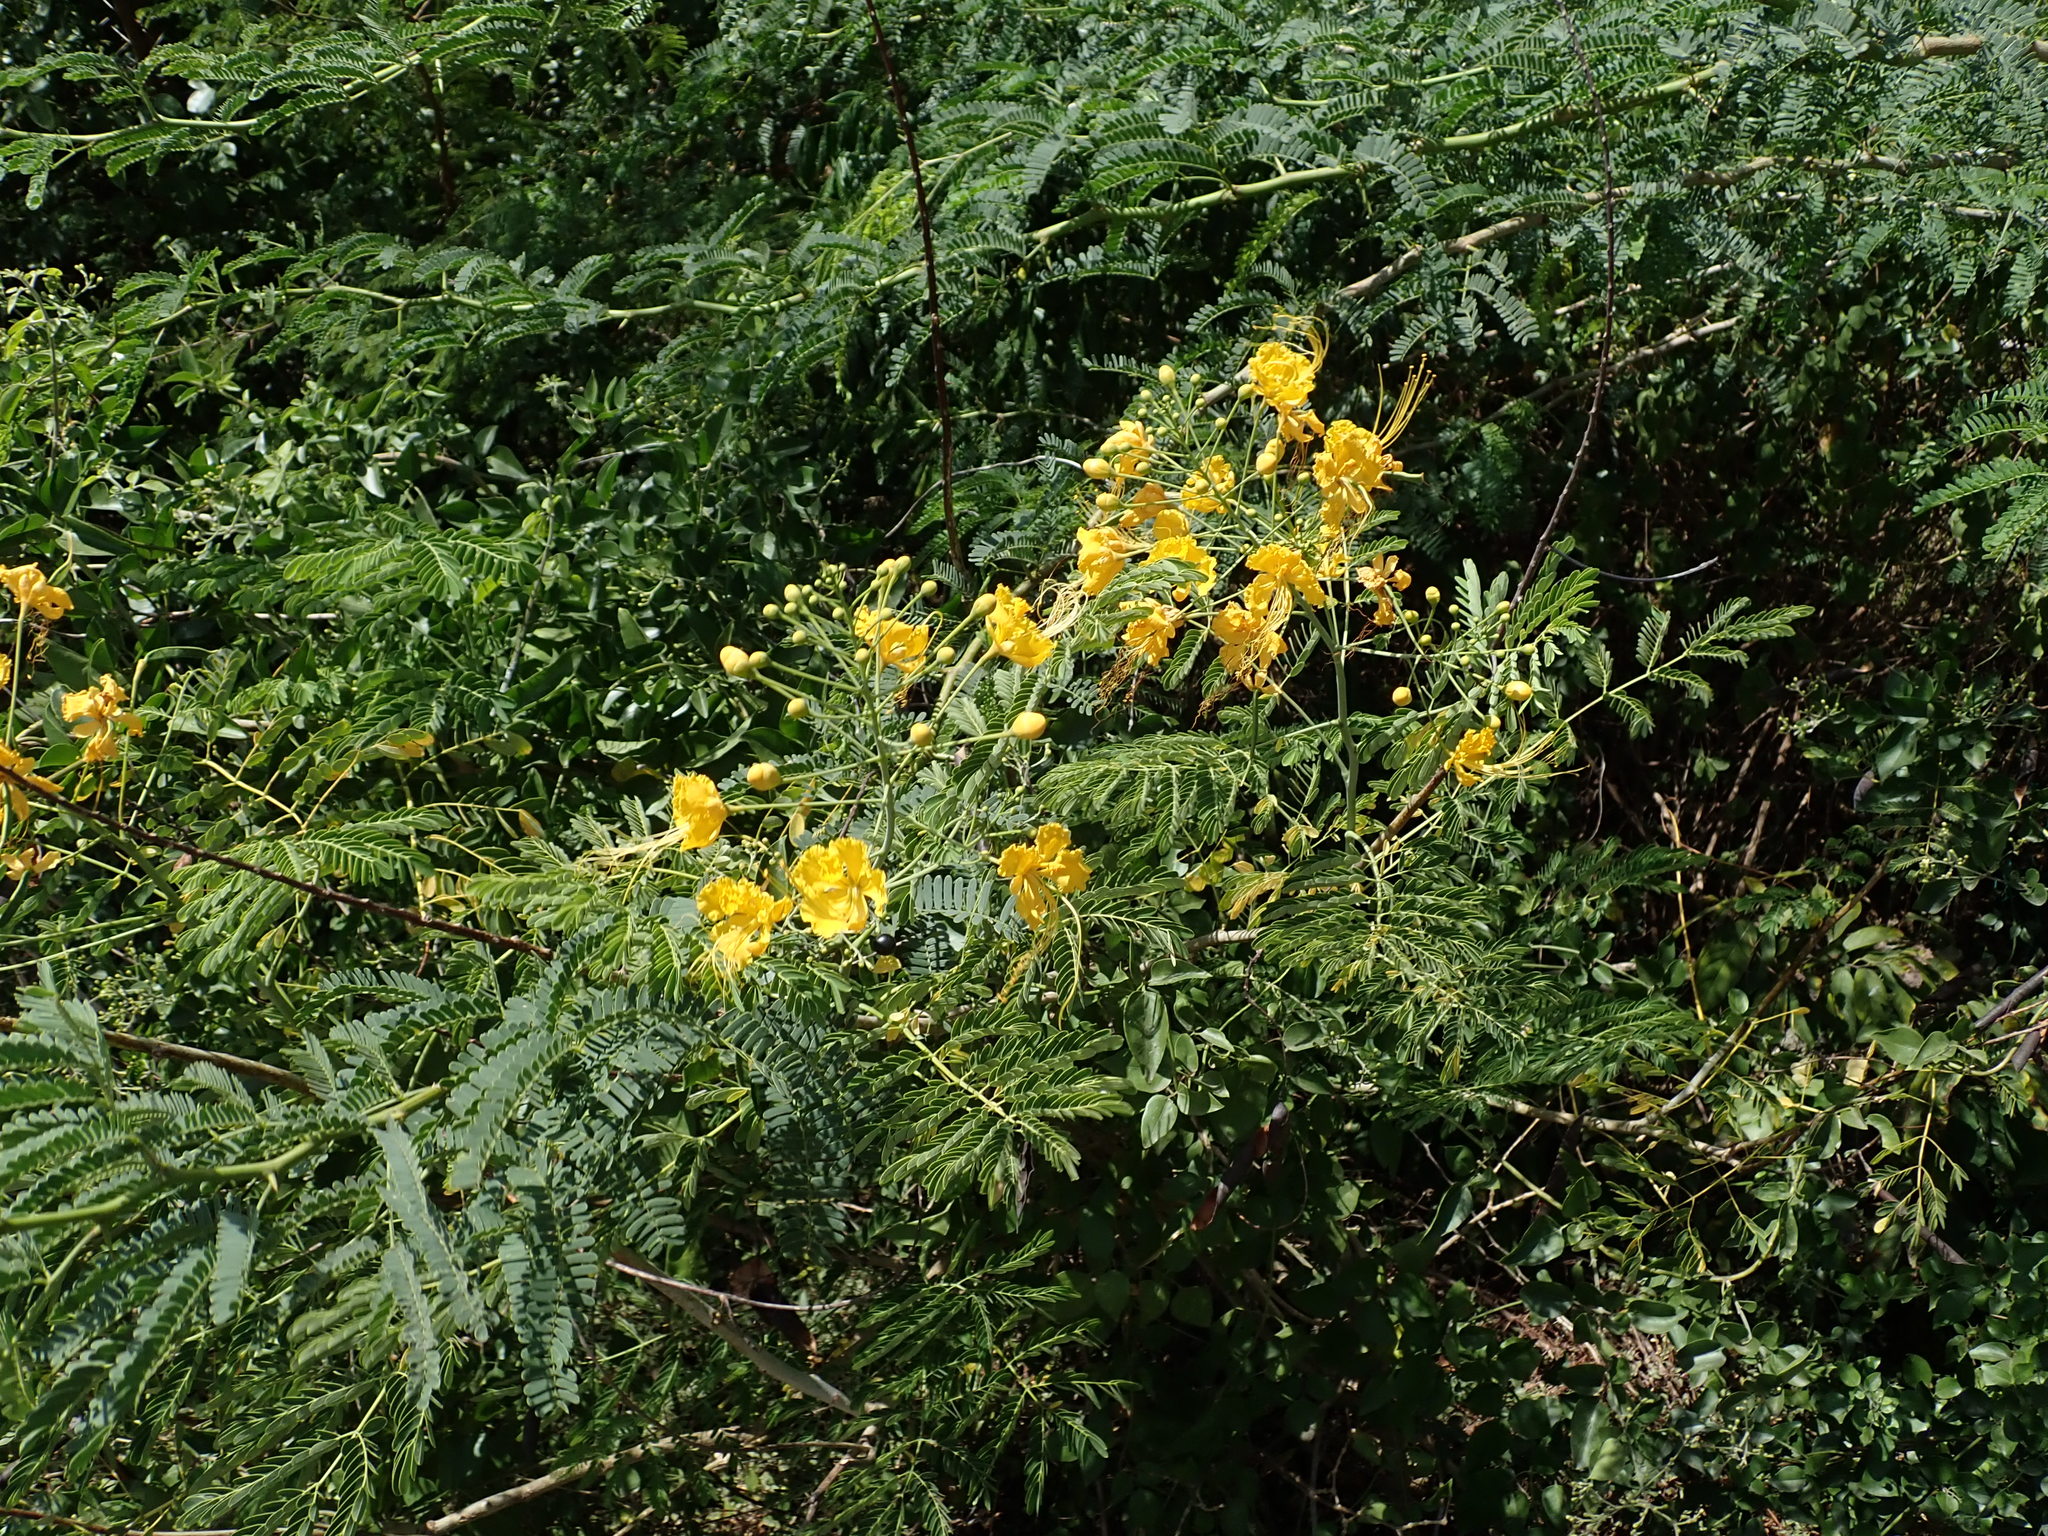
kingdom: Plantae
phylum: Tracheophyta
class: Magnoliopsida
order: Fabales
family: Fabaceae
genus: Caesalpinia
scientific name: Caesalpinia pulcherrima
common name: Pride-of-barbados
